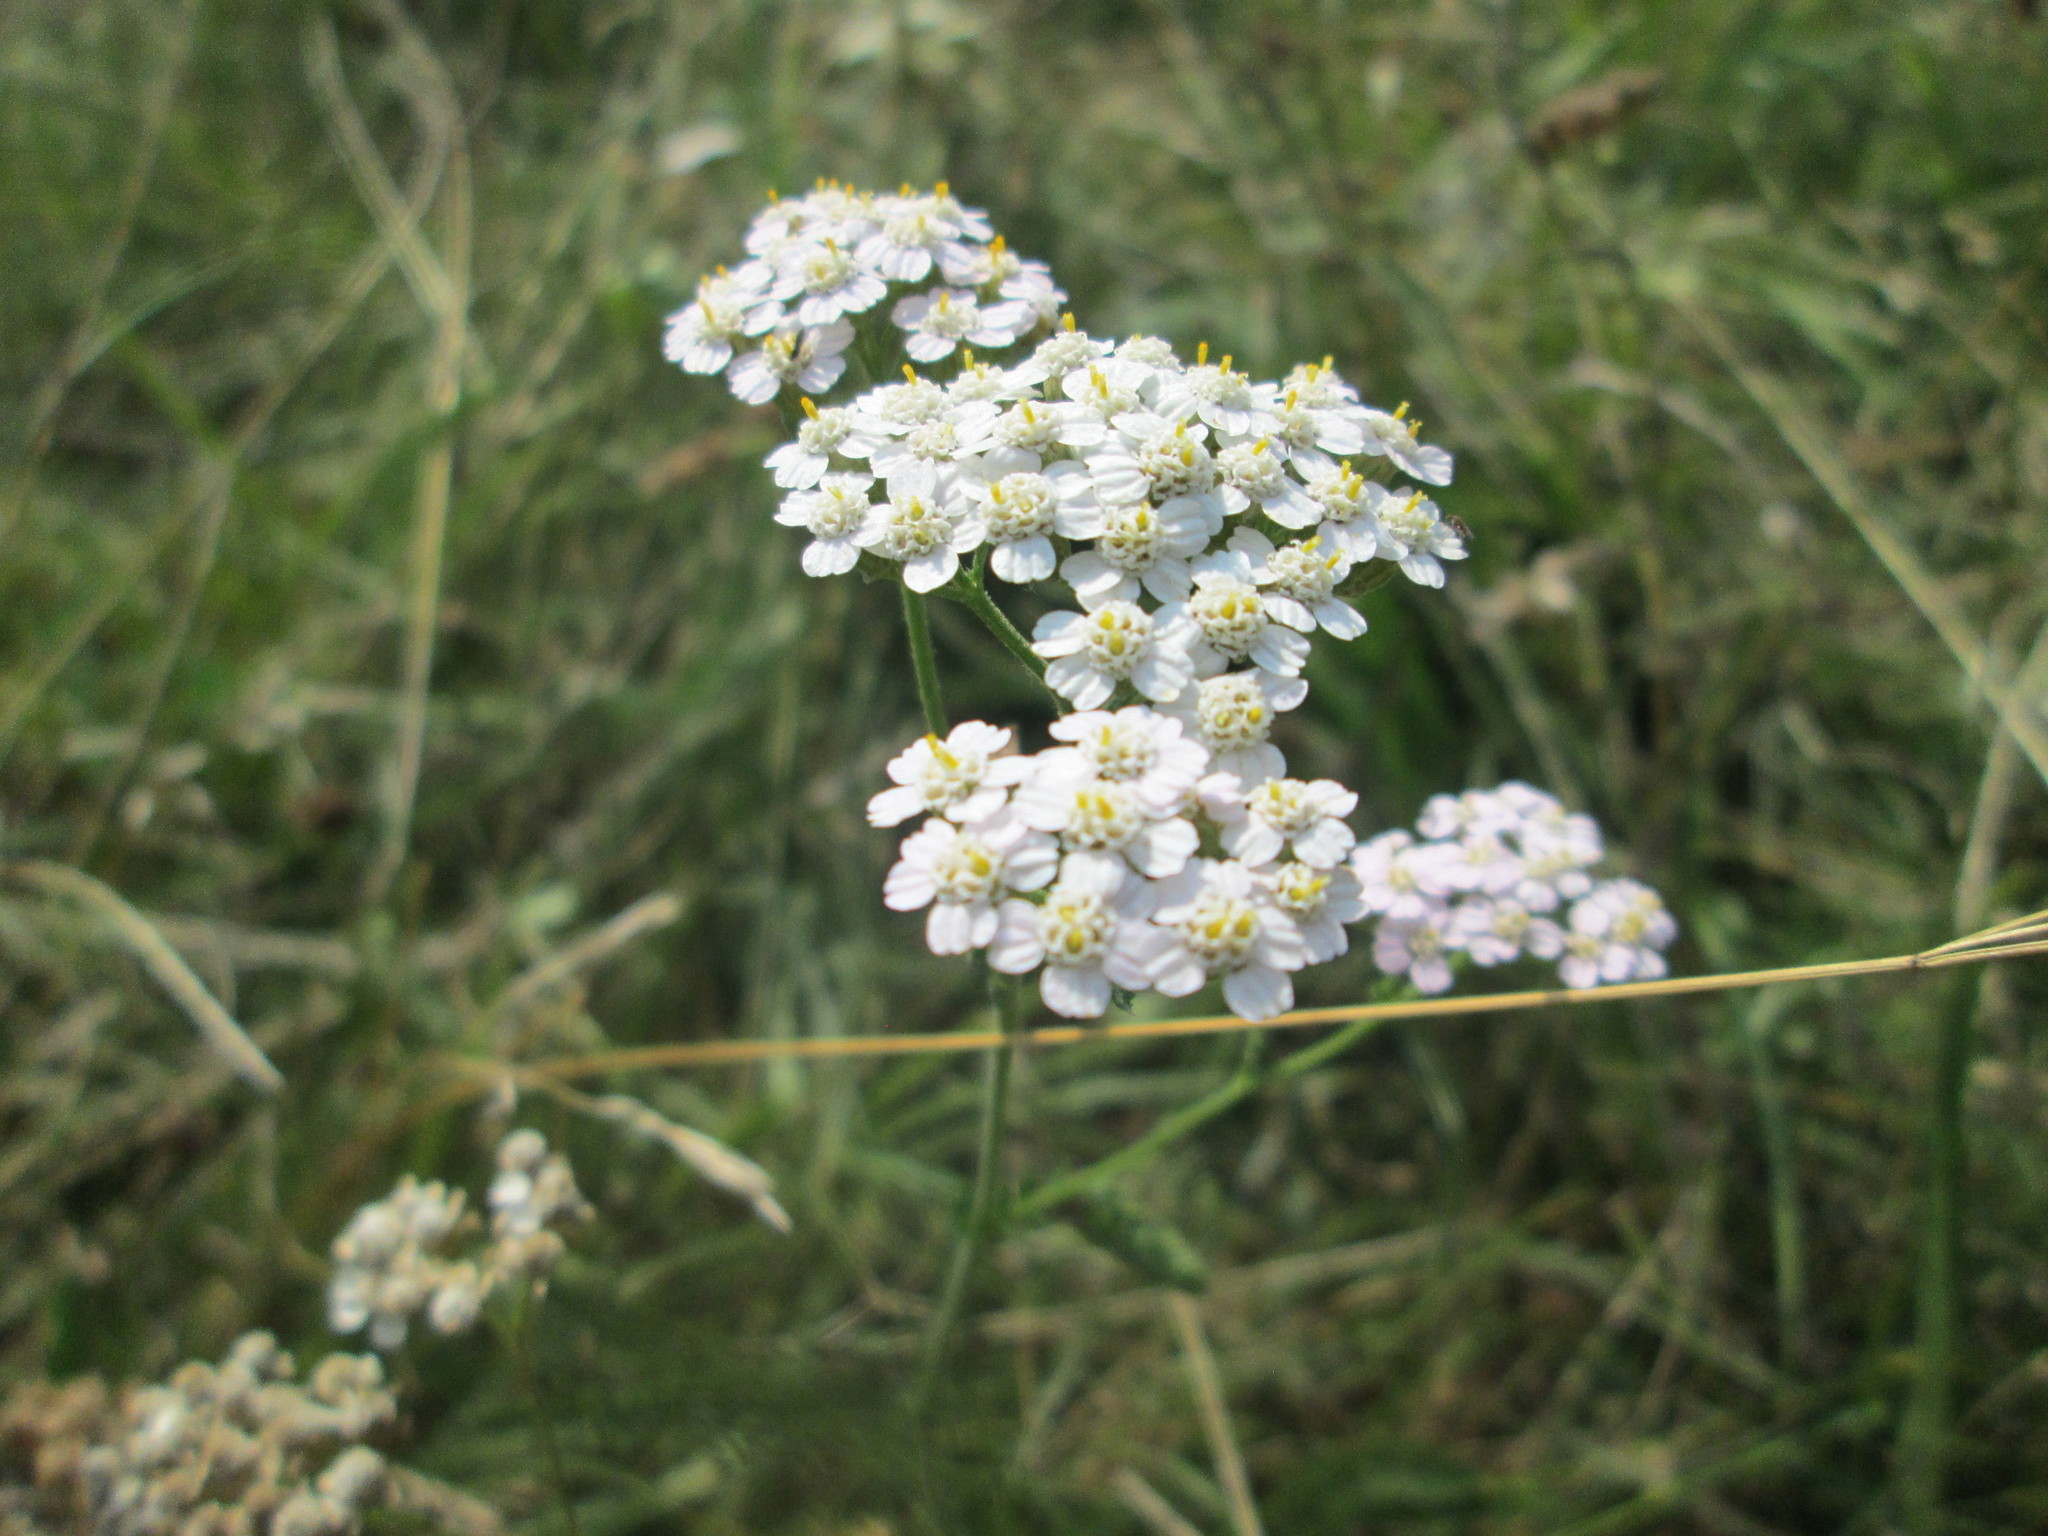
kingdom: Plantae
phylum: Tracheophyta
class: Magnoliopsida
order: Asterales
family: Asteraceae
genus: Achillea
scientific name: Achillea millefolium
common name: Yarrow
